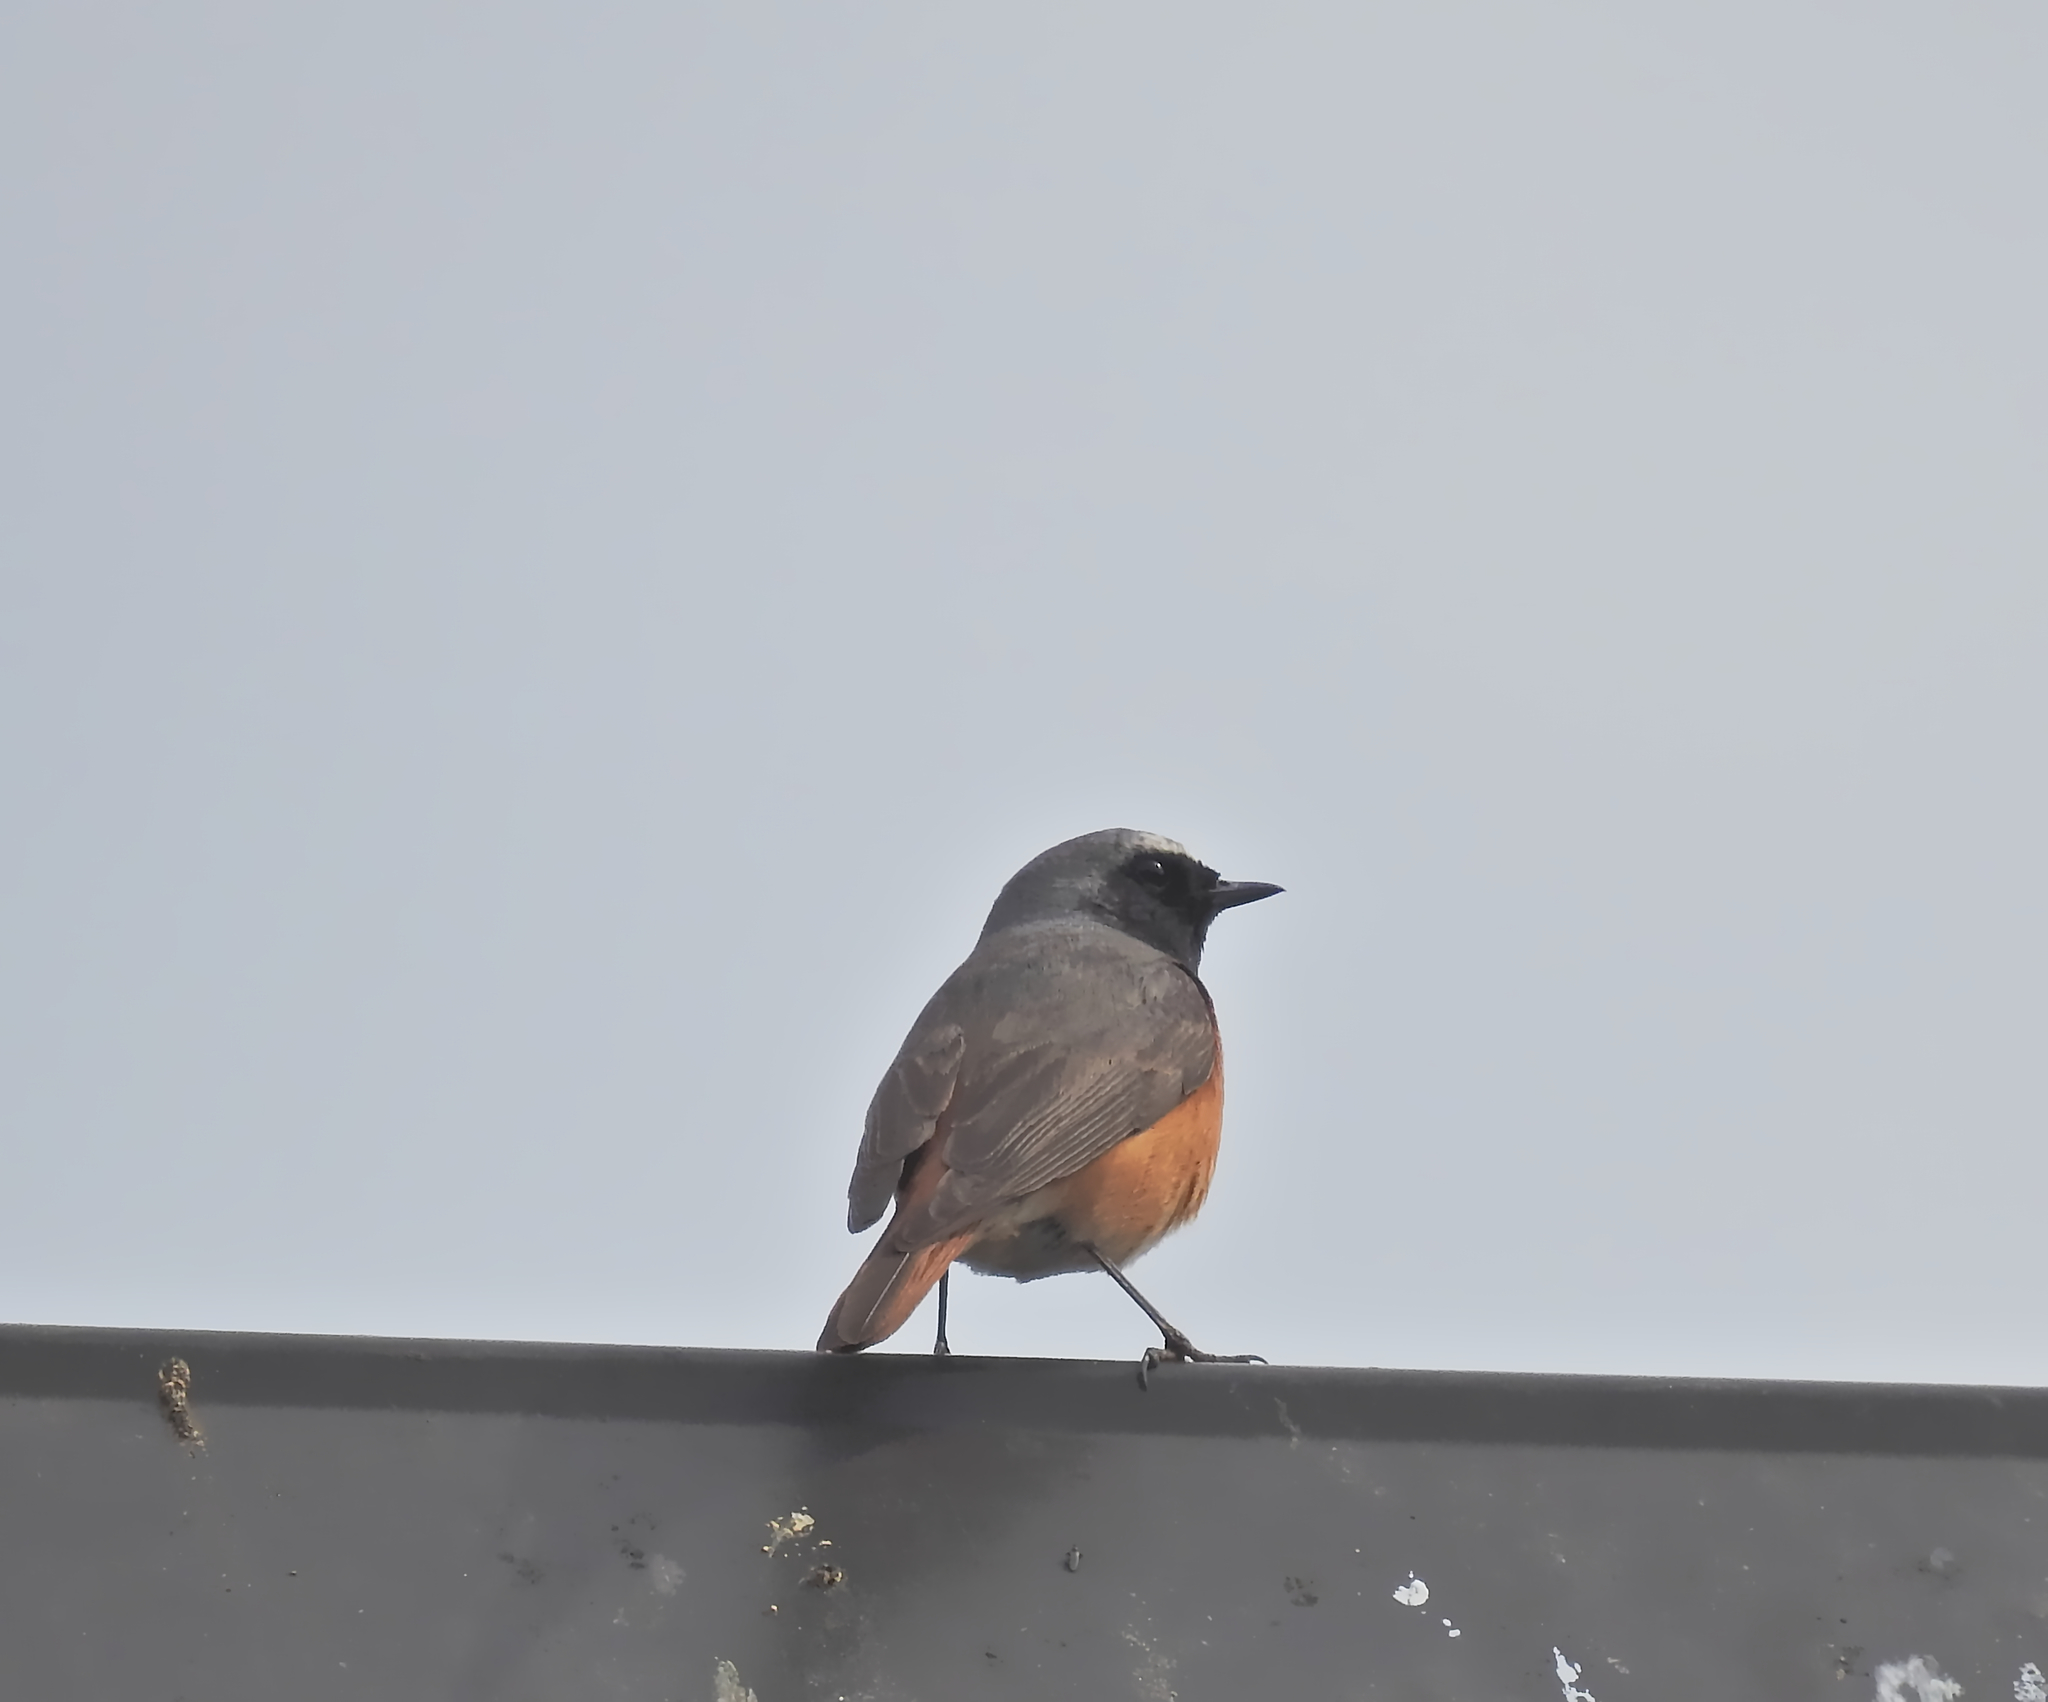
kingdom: Animalia
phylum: Chordata
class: Aves
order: Passeriformes
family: Muscicapidae
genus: Phoenicurus
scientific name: Phoenicurus phoenicurus
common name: Common redstart
